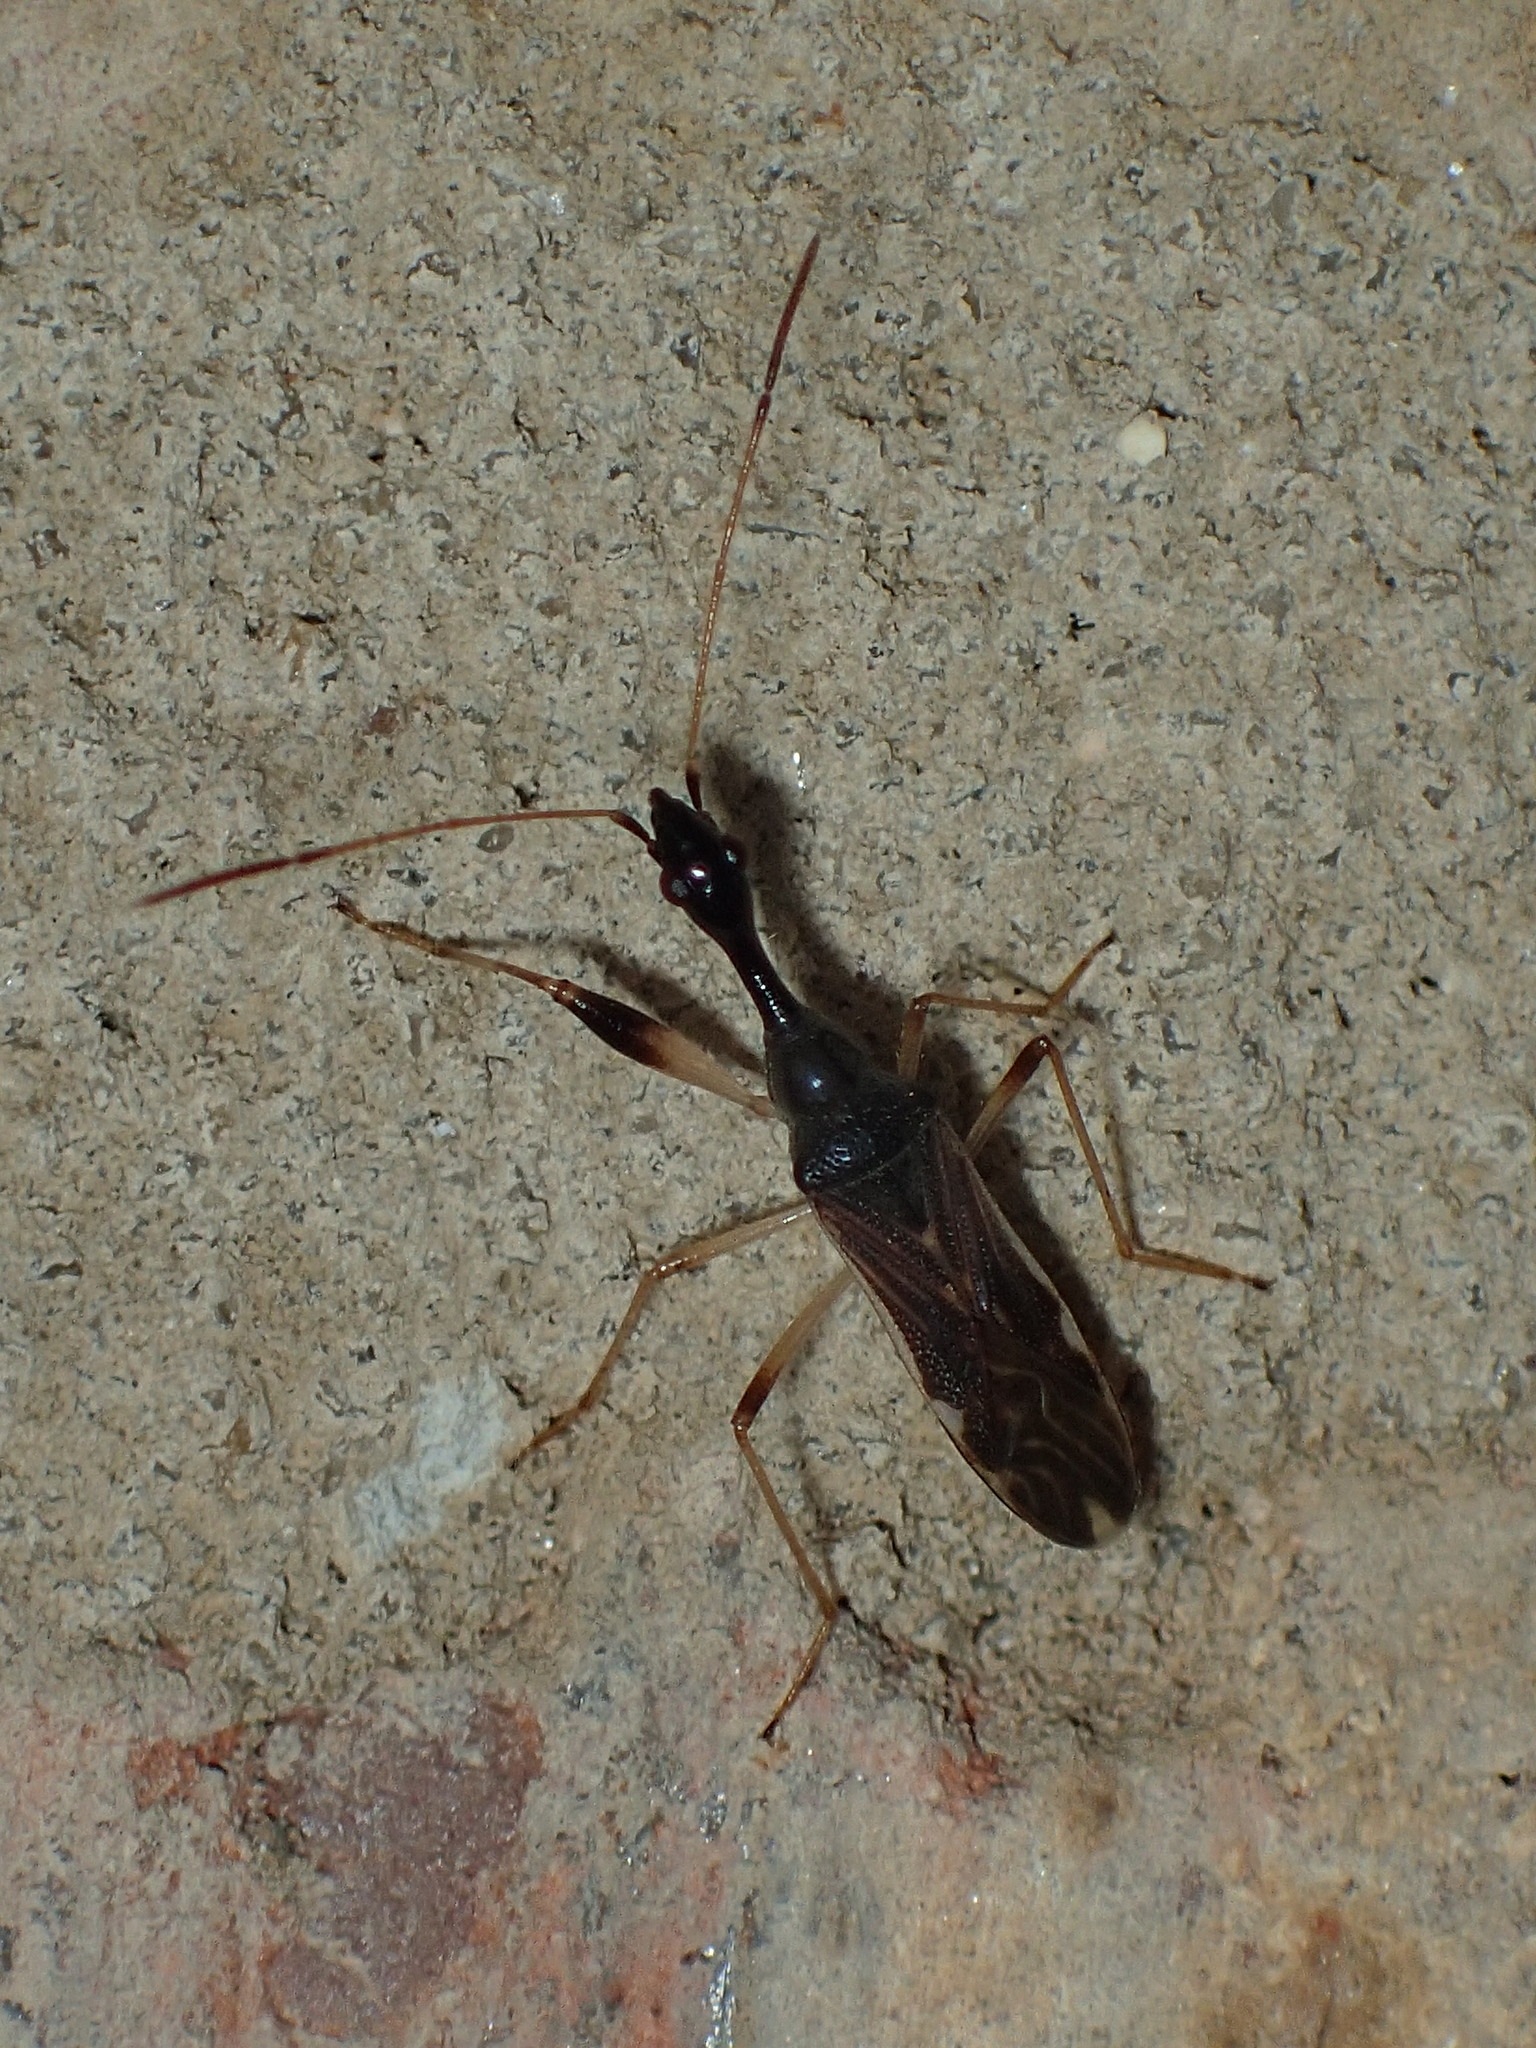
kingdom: Animalia
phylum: Arthropoda
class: Insecta
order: Hemiptera
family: Rhyparochromidae
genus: Myodocha
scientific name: Myodocha serripes
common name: Long-necked seed bug
